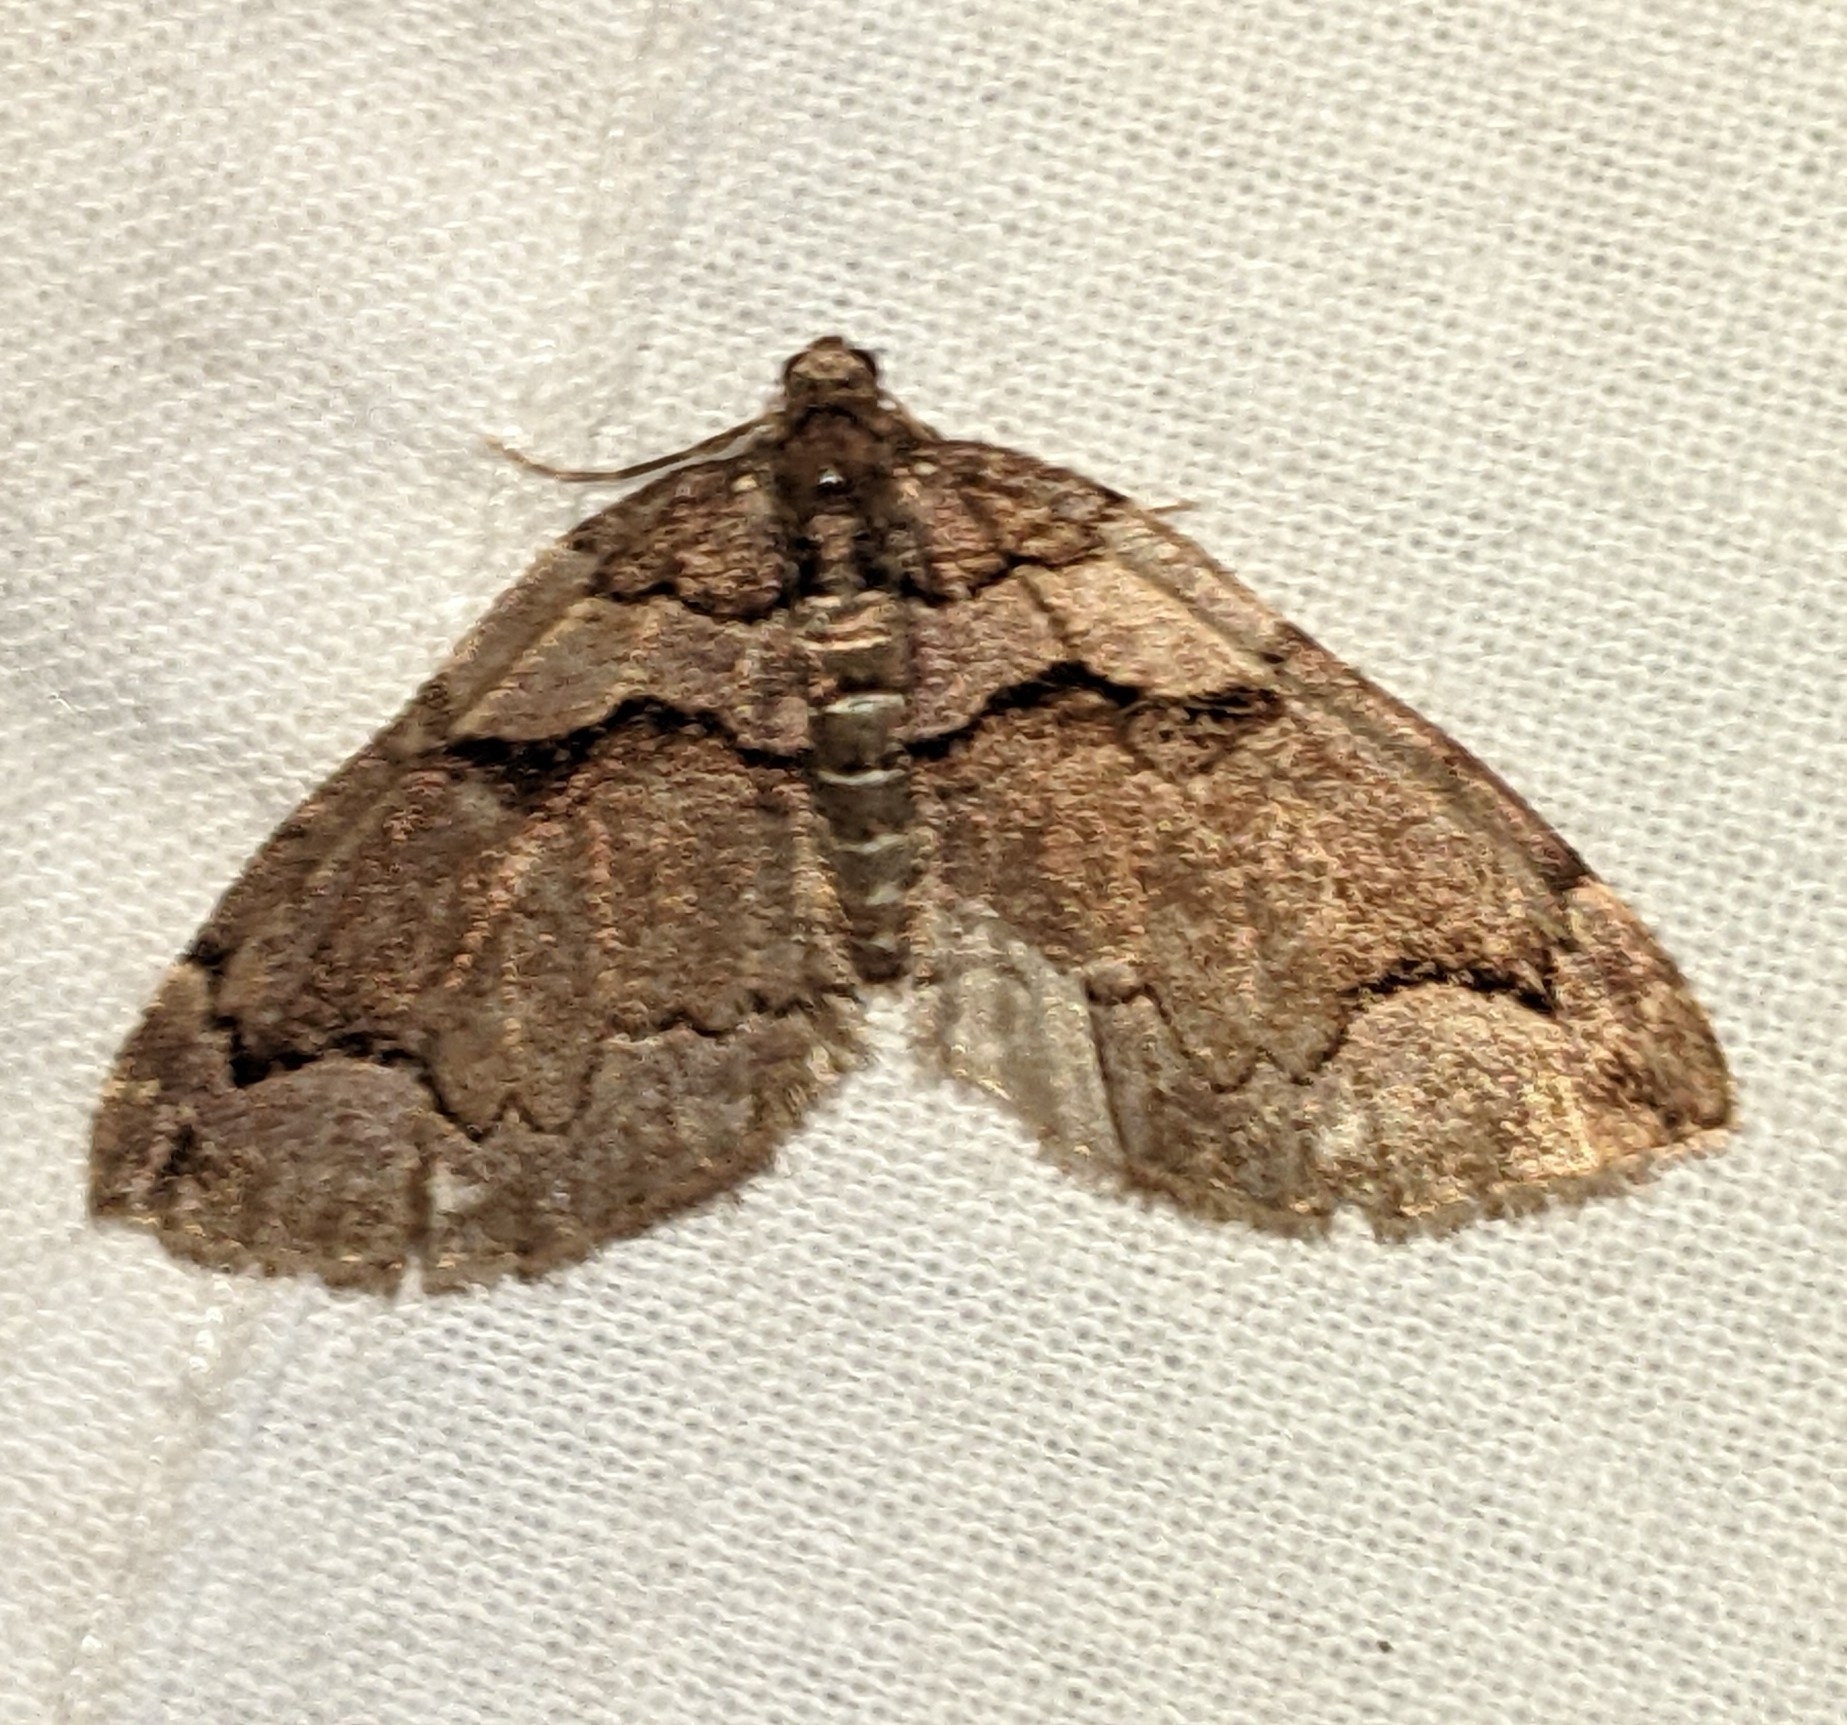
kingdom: Animalia
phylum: Arthropoda
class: Insecta
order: Lepidoptera
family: Geometridae
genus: Anticlea
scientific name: Anticlea vasiliata
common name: Variable carpet
